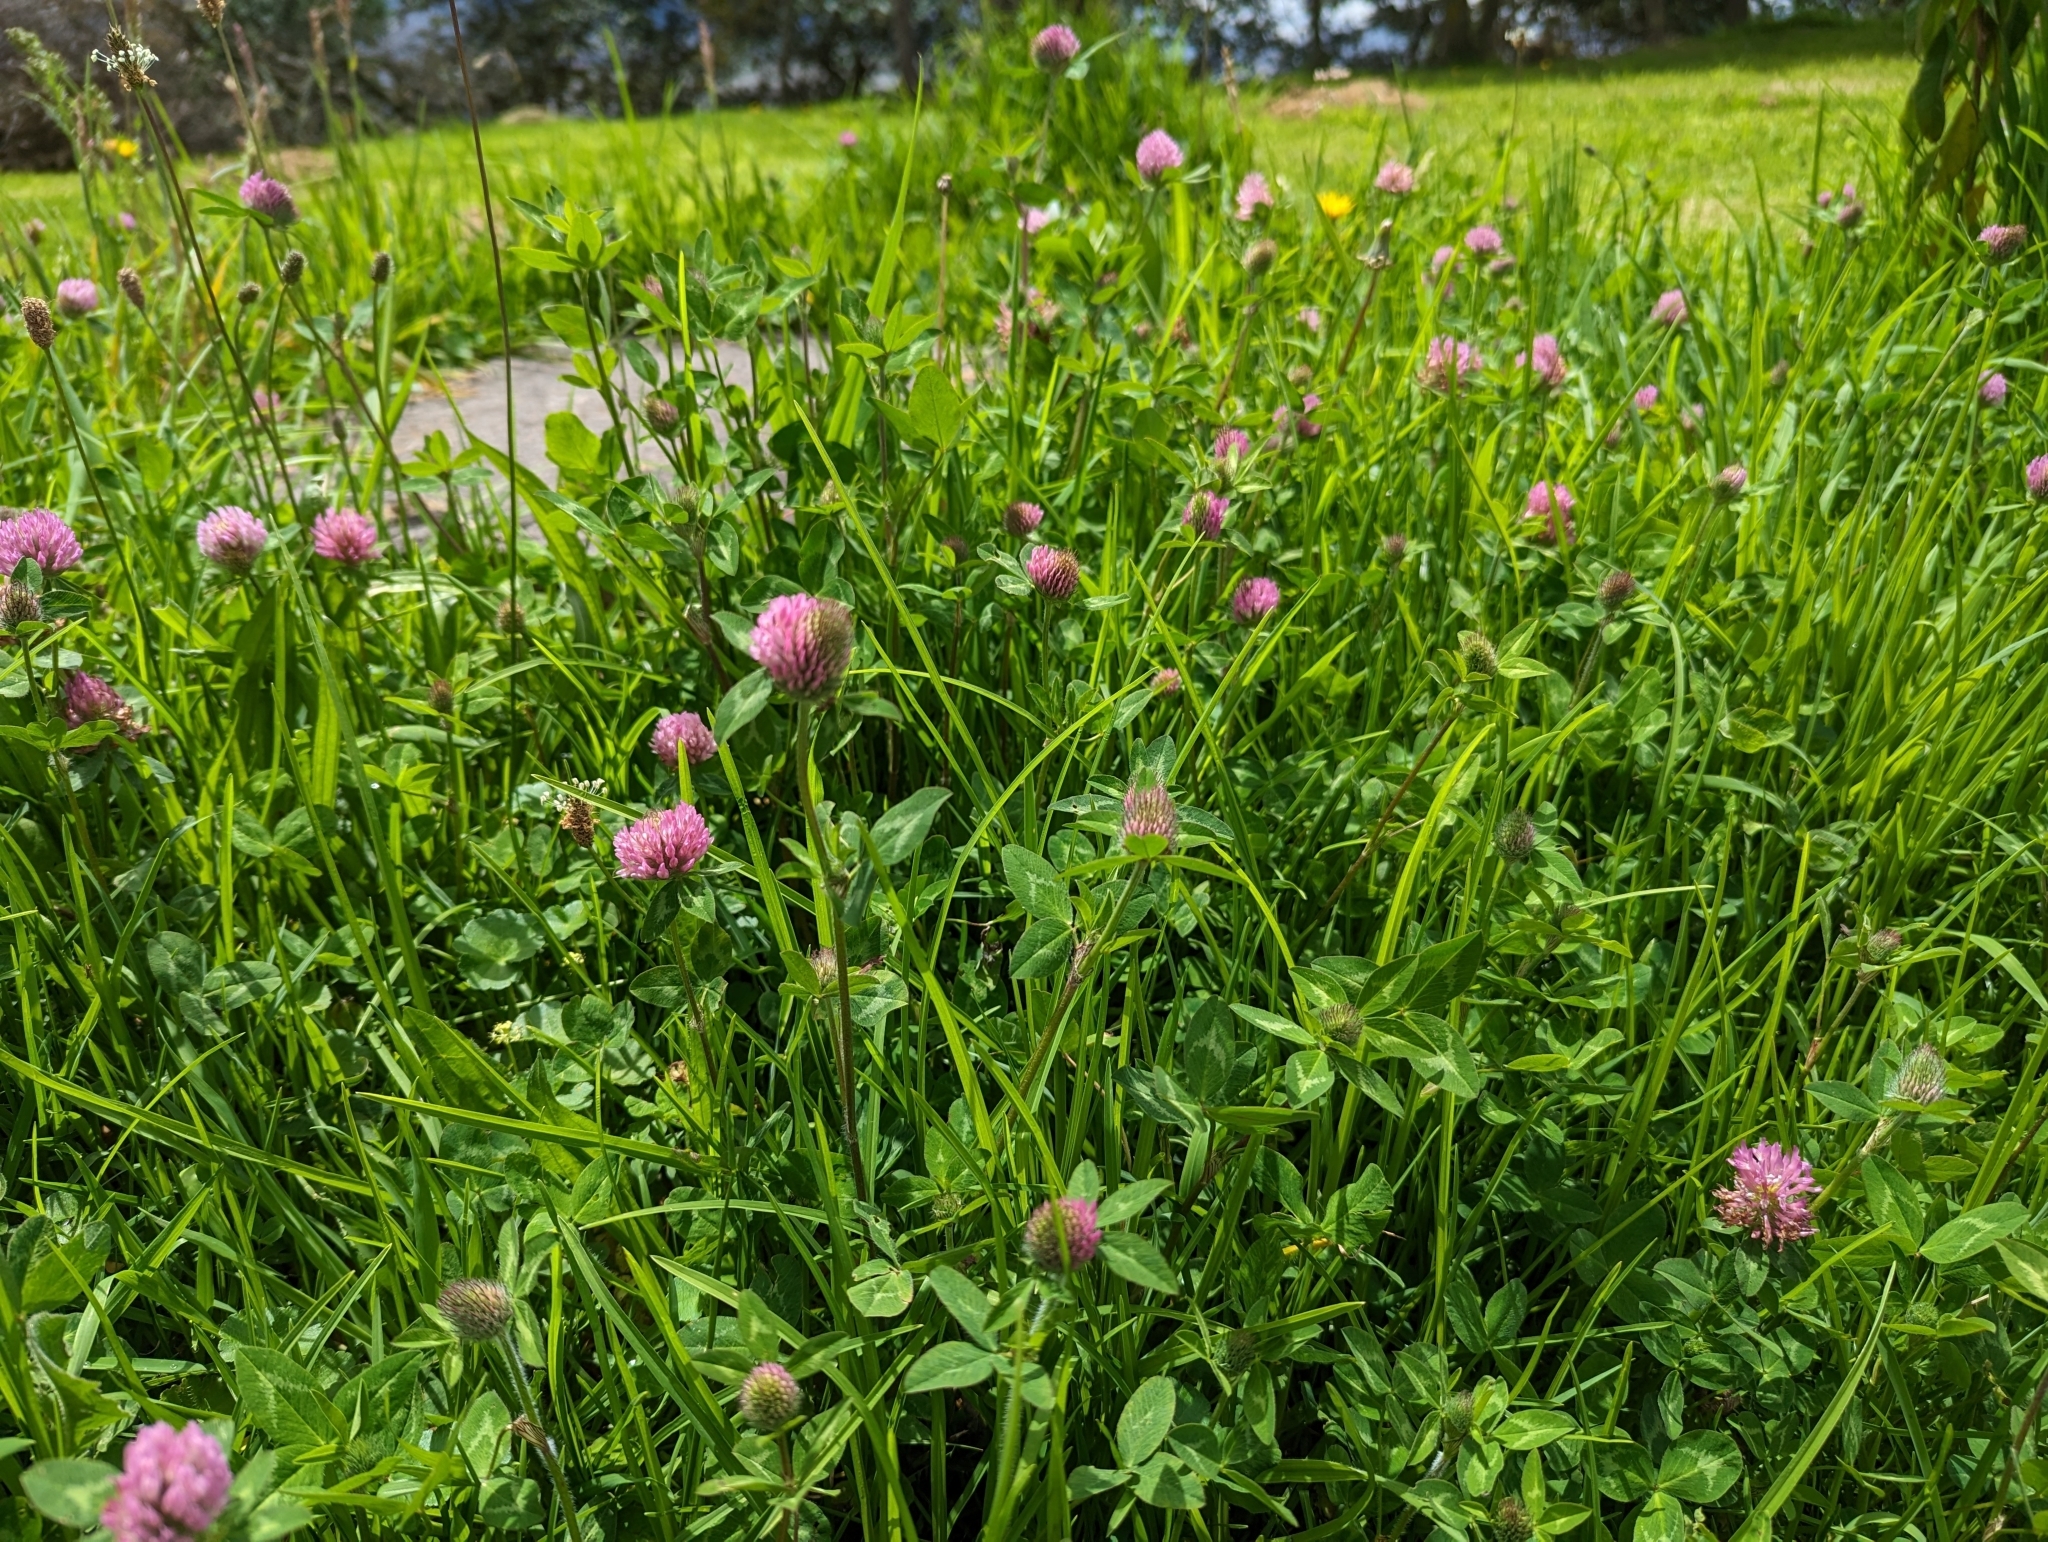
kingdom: Plantae
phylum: Tracheophyta
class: Magnoliopsida
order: Fabales
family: Fabaceae
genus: Trifolium
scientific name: Trifolium pratense
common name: Red clover
